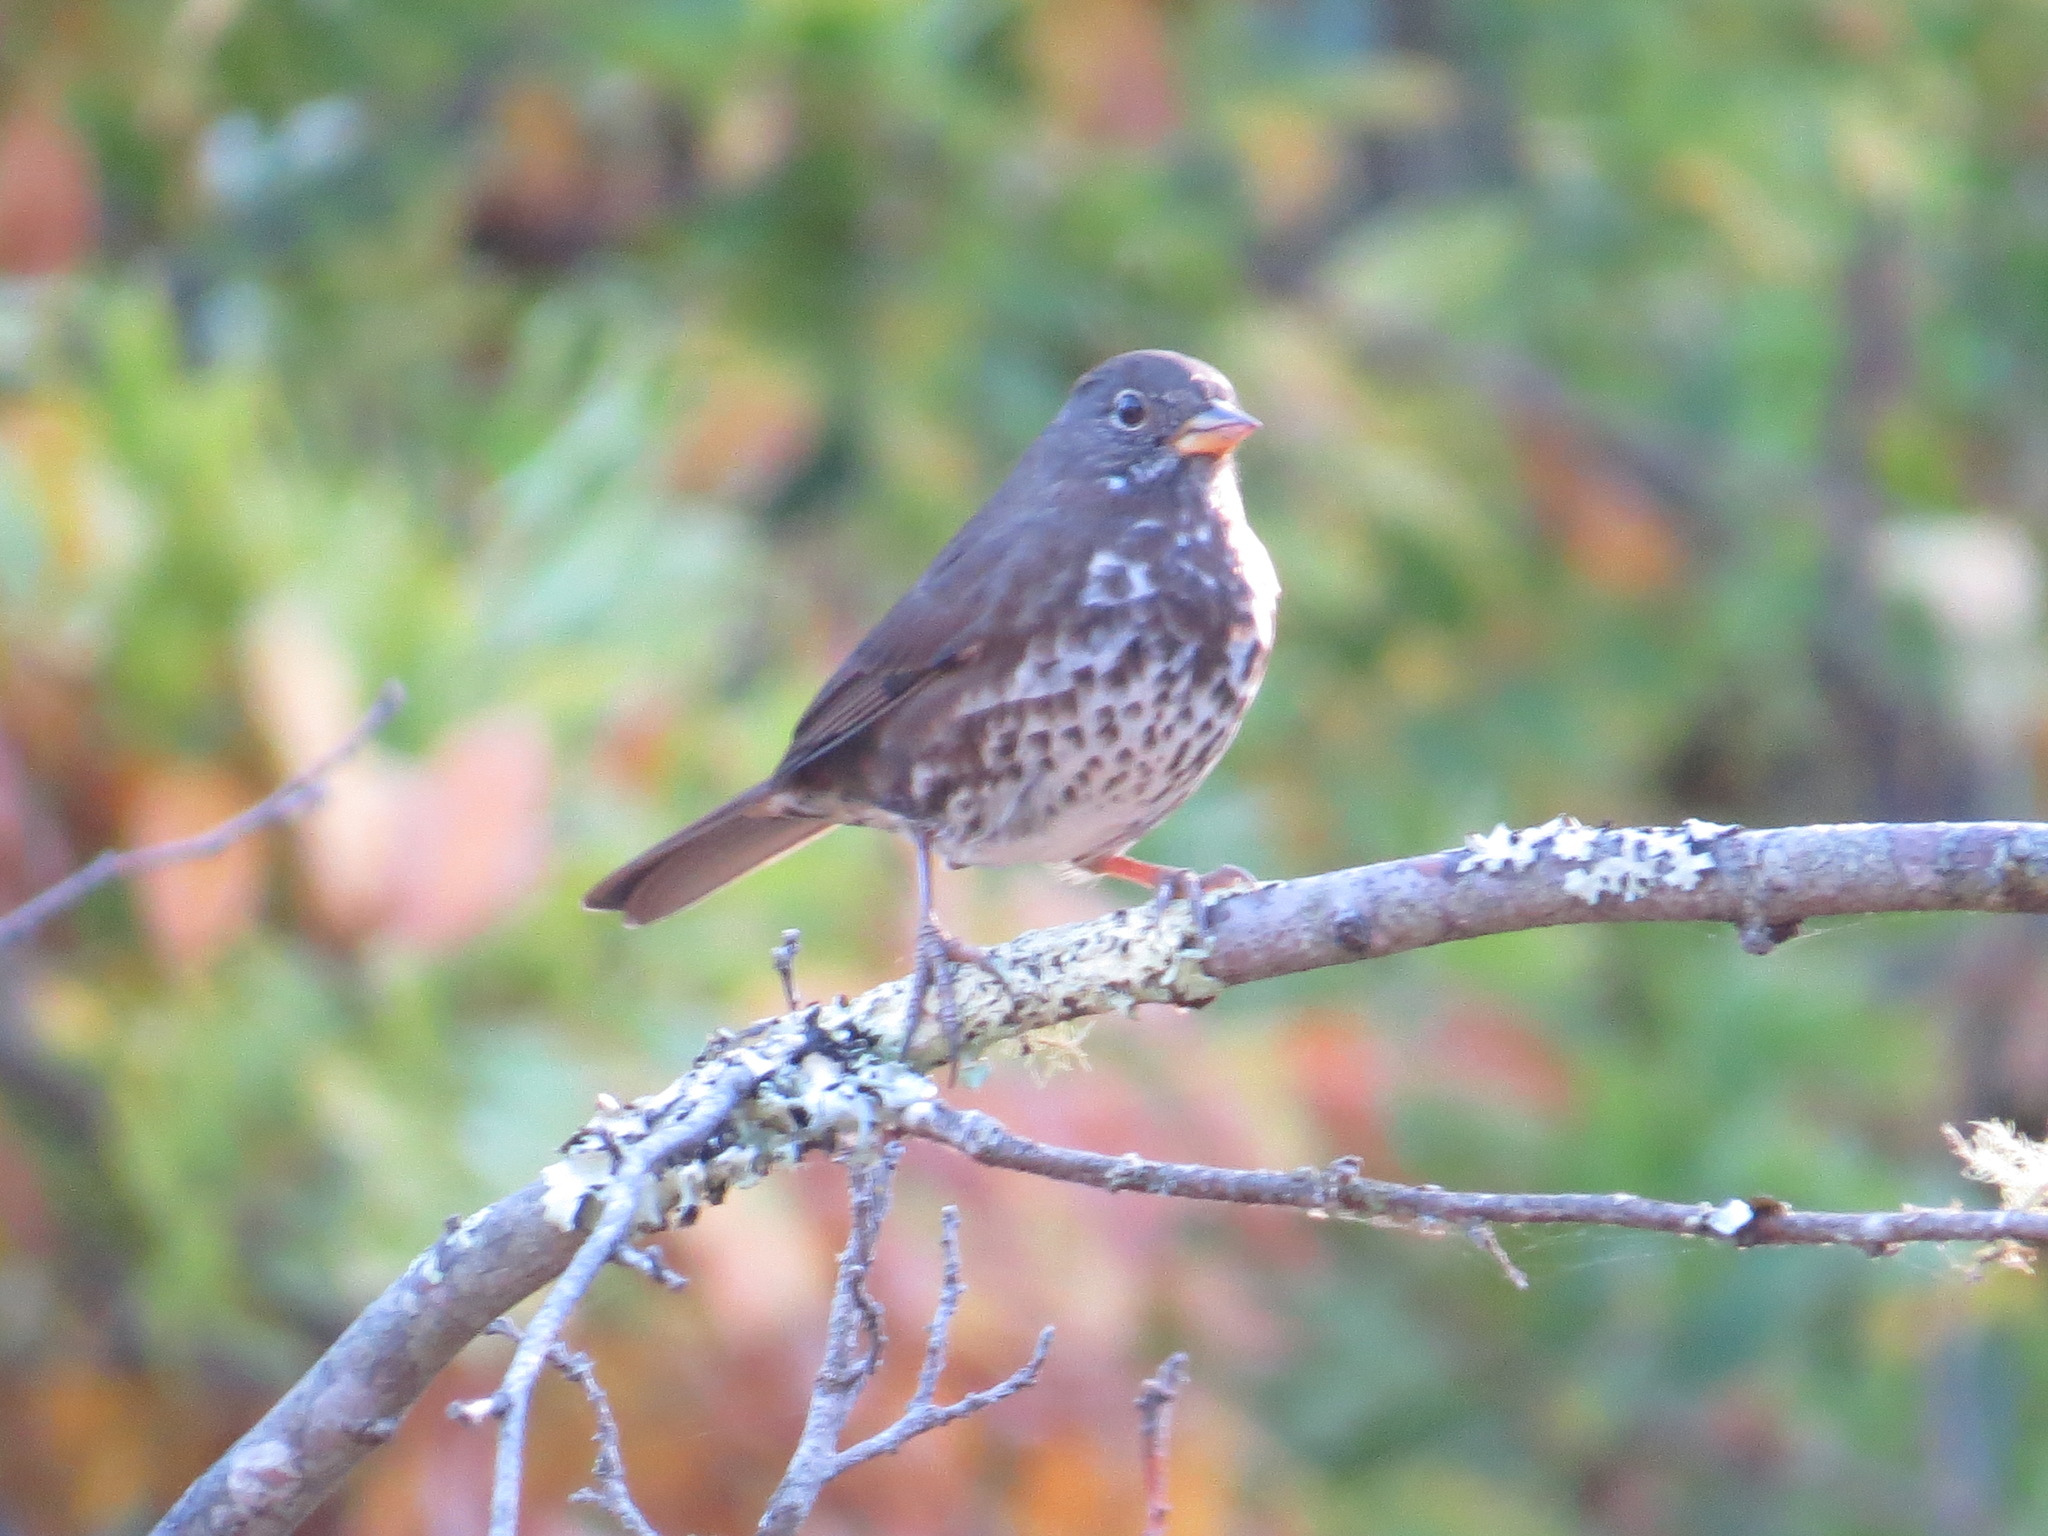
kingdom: Animalia
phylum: Chordata
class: Aves
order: Passeriformes
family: Passerellidae
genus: Passerella
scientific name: Passerella iliaca
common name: Fox sparrow
